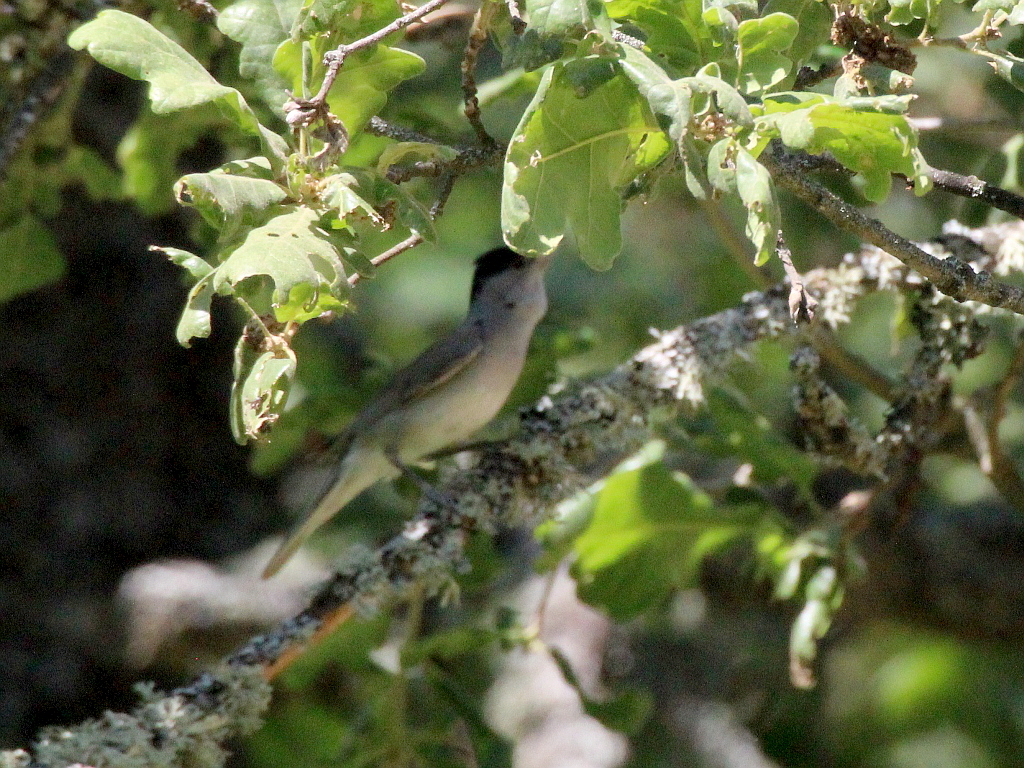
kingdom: Animalia
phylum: Chordata
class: Aves
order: Passeriformes
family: Sylviidae
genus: Sylvia
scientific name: Sylvia atricapilla
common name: Eurasian blackcap
